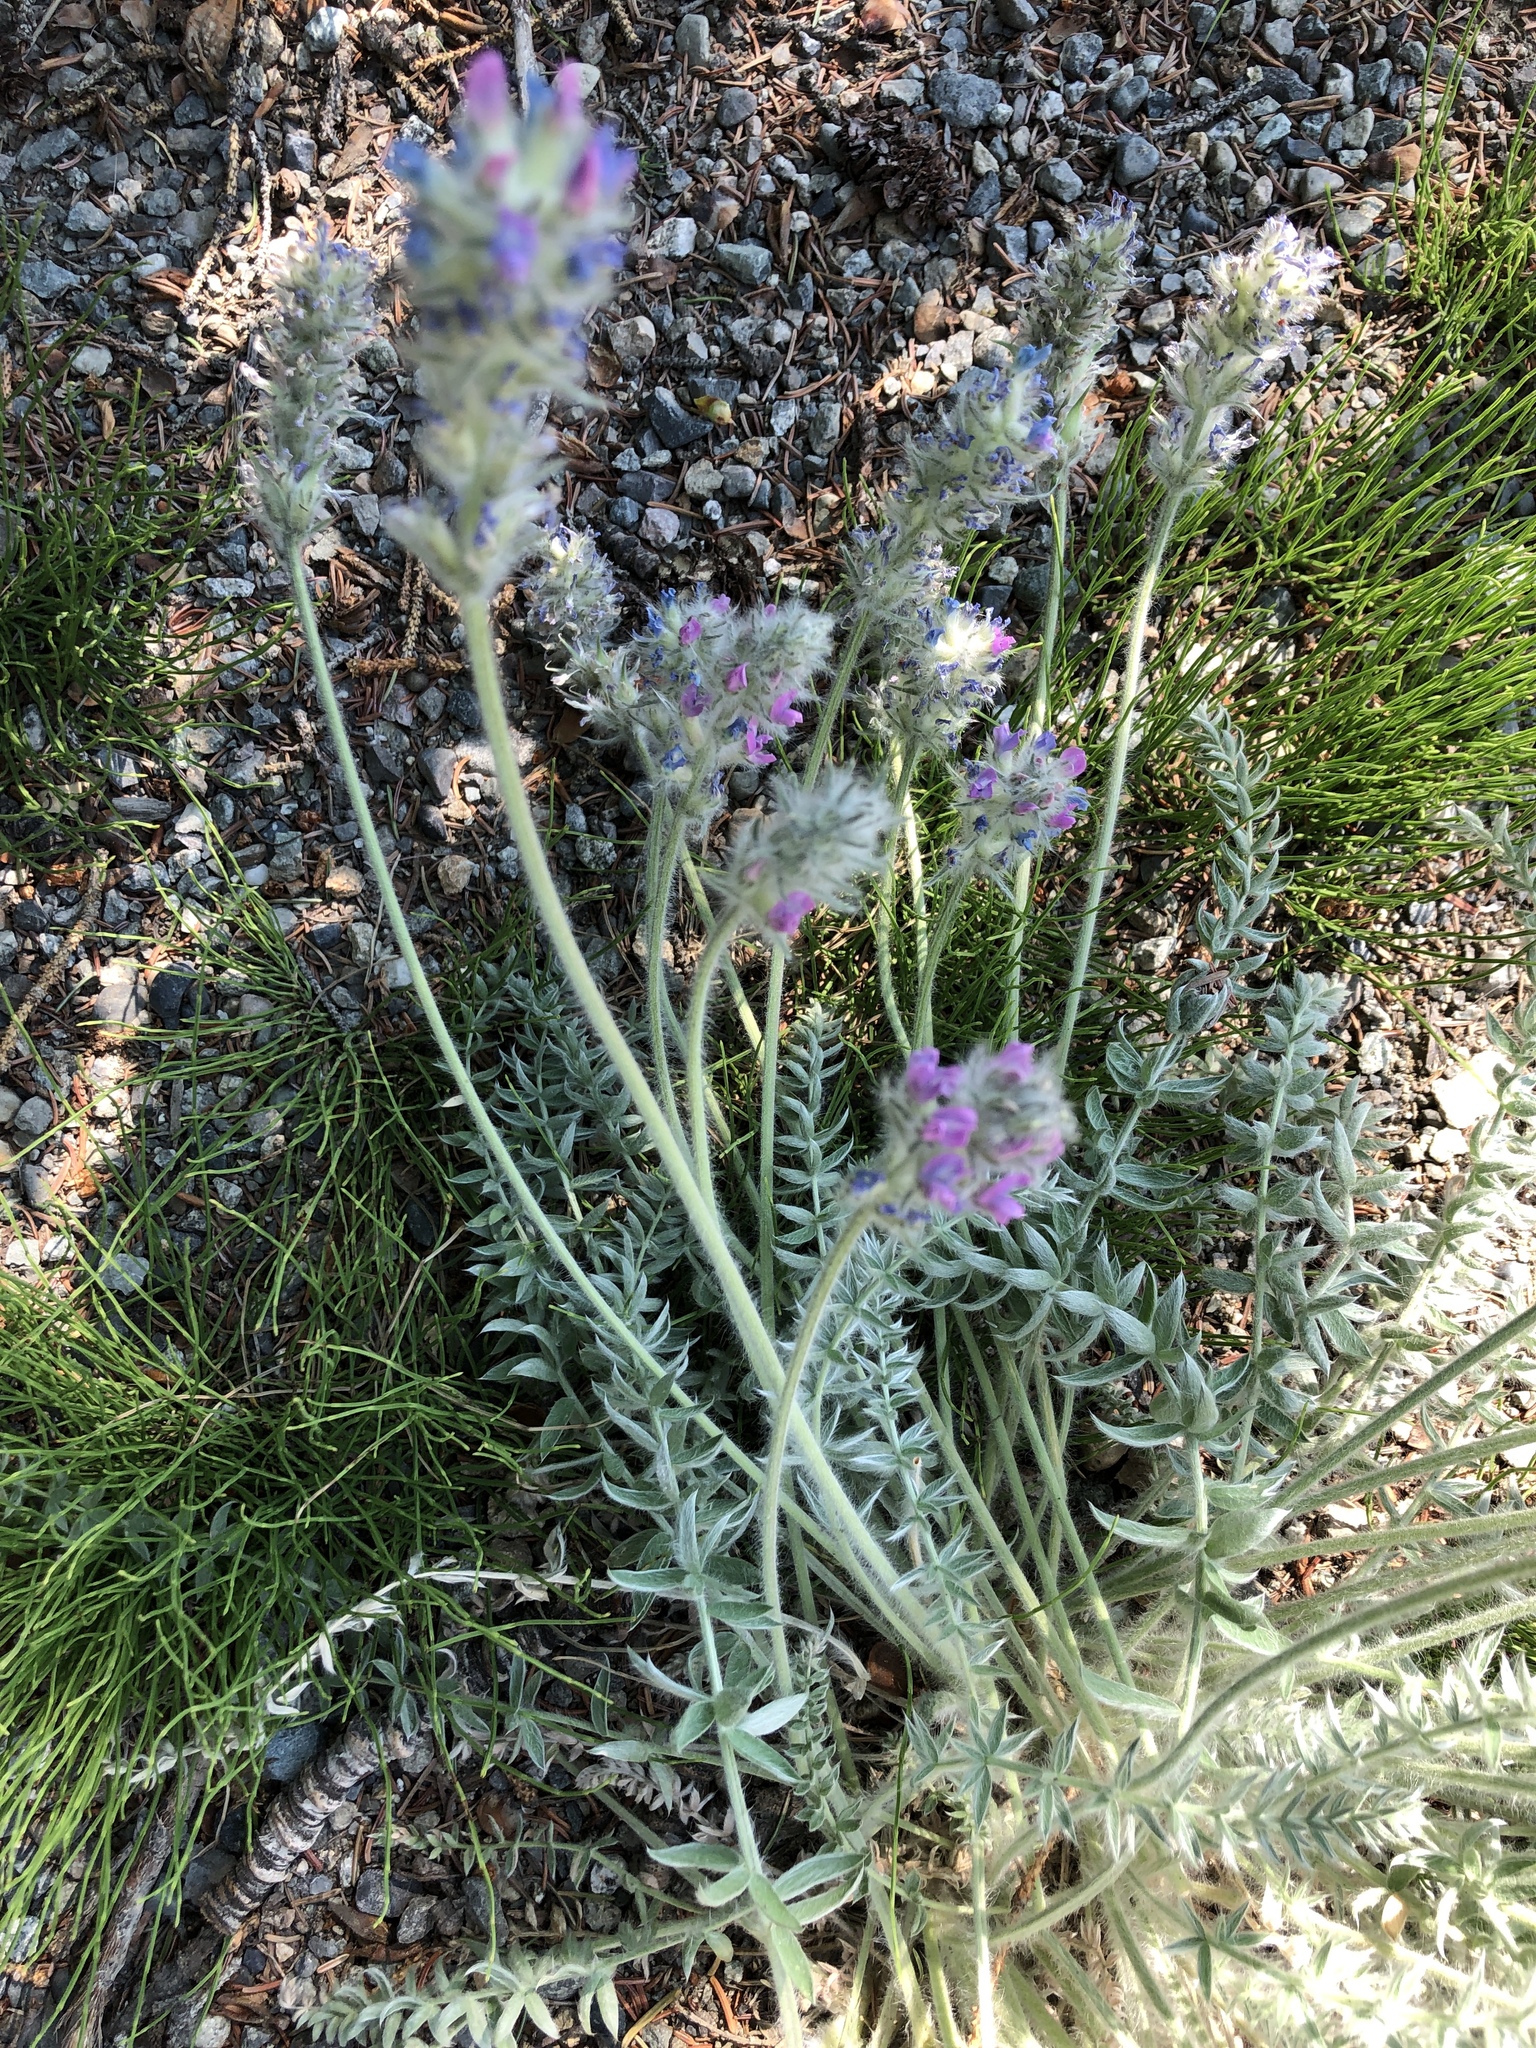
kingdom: Plantae
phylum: Tracheophyta
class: Magnoliopsida
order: Fabales
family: Fabaceae
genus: Oxytropis
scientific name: Oxytropis splendens
